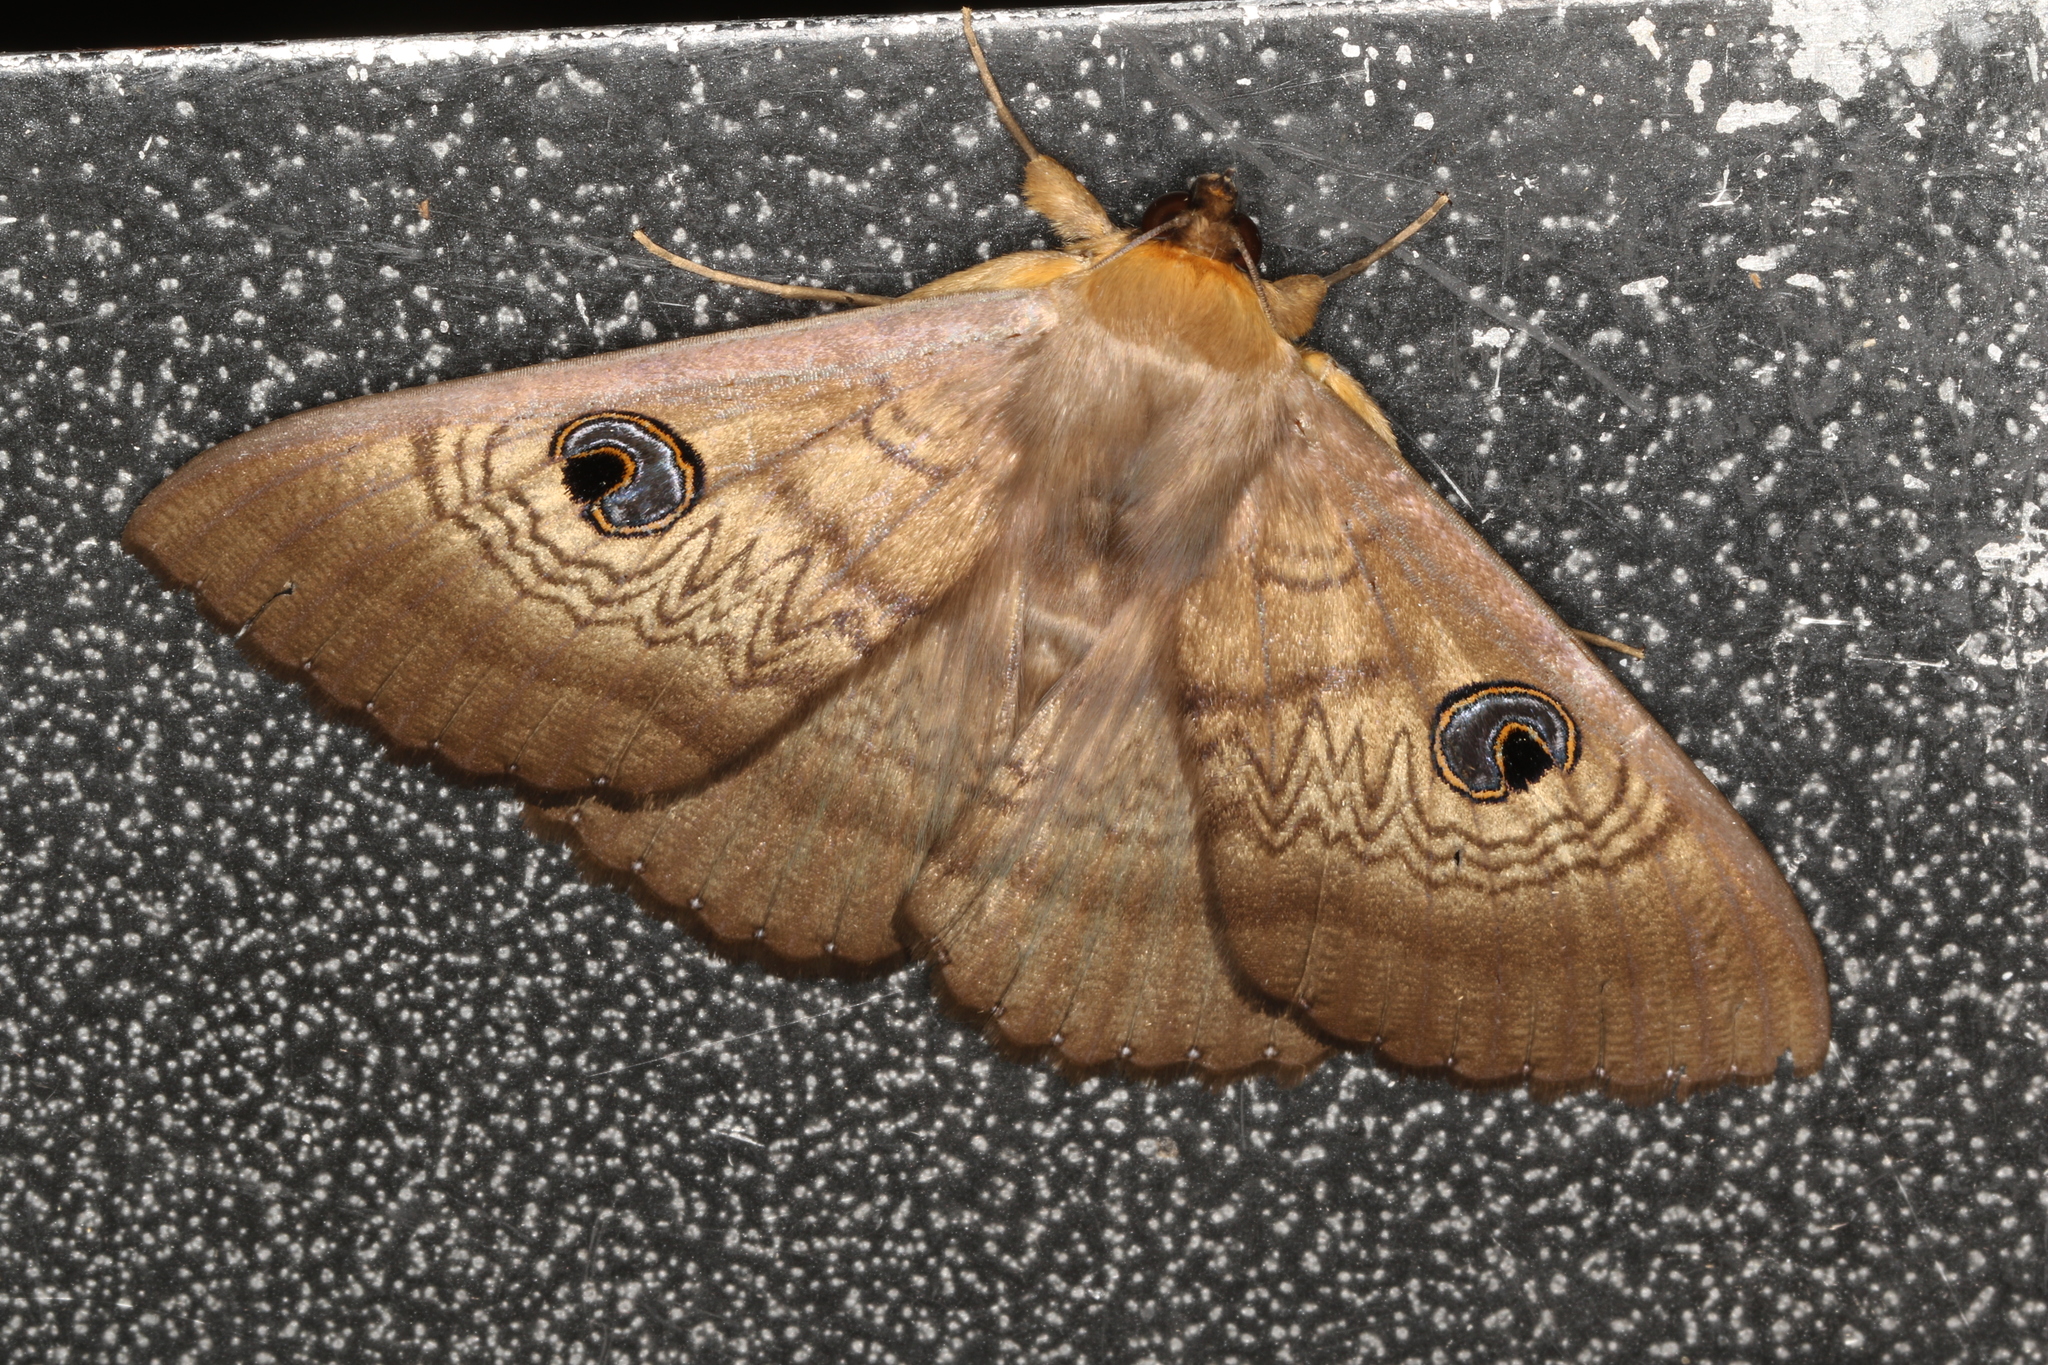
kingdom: Animalia
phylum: Arthropoda
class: Insecta
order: Lepidoptera
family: Erebidae
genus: Dasypodia
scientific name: Dasypodia selenophora
